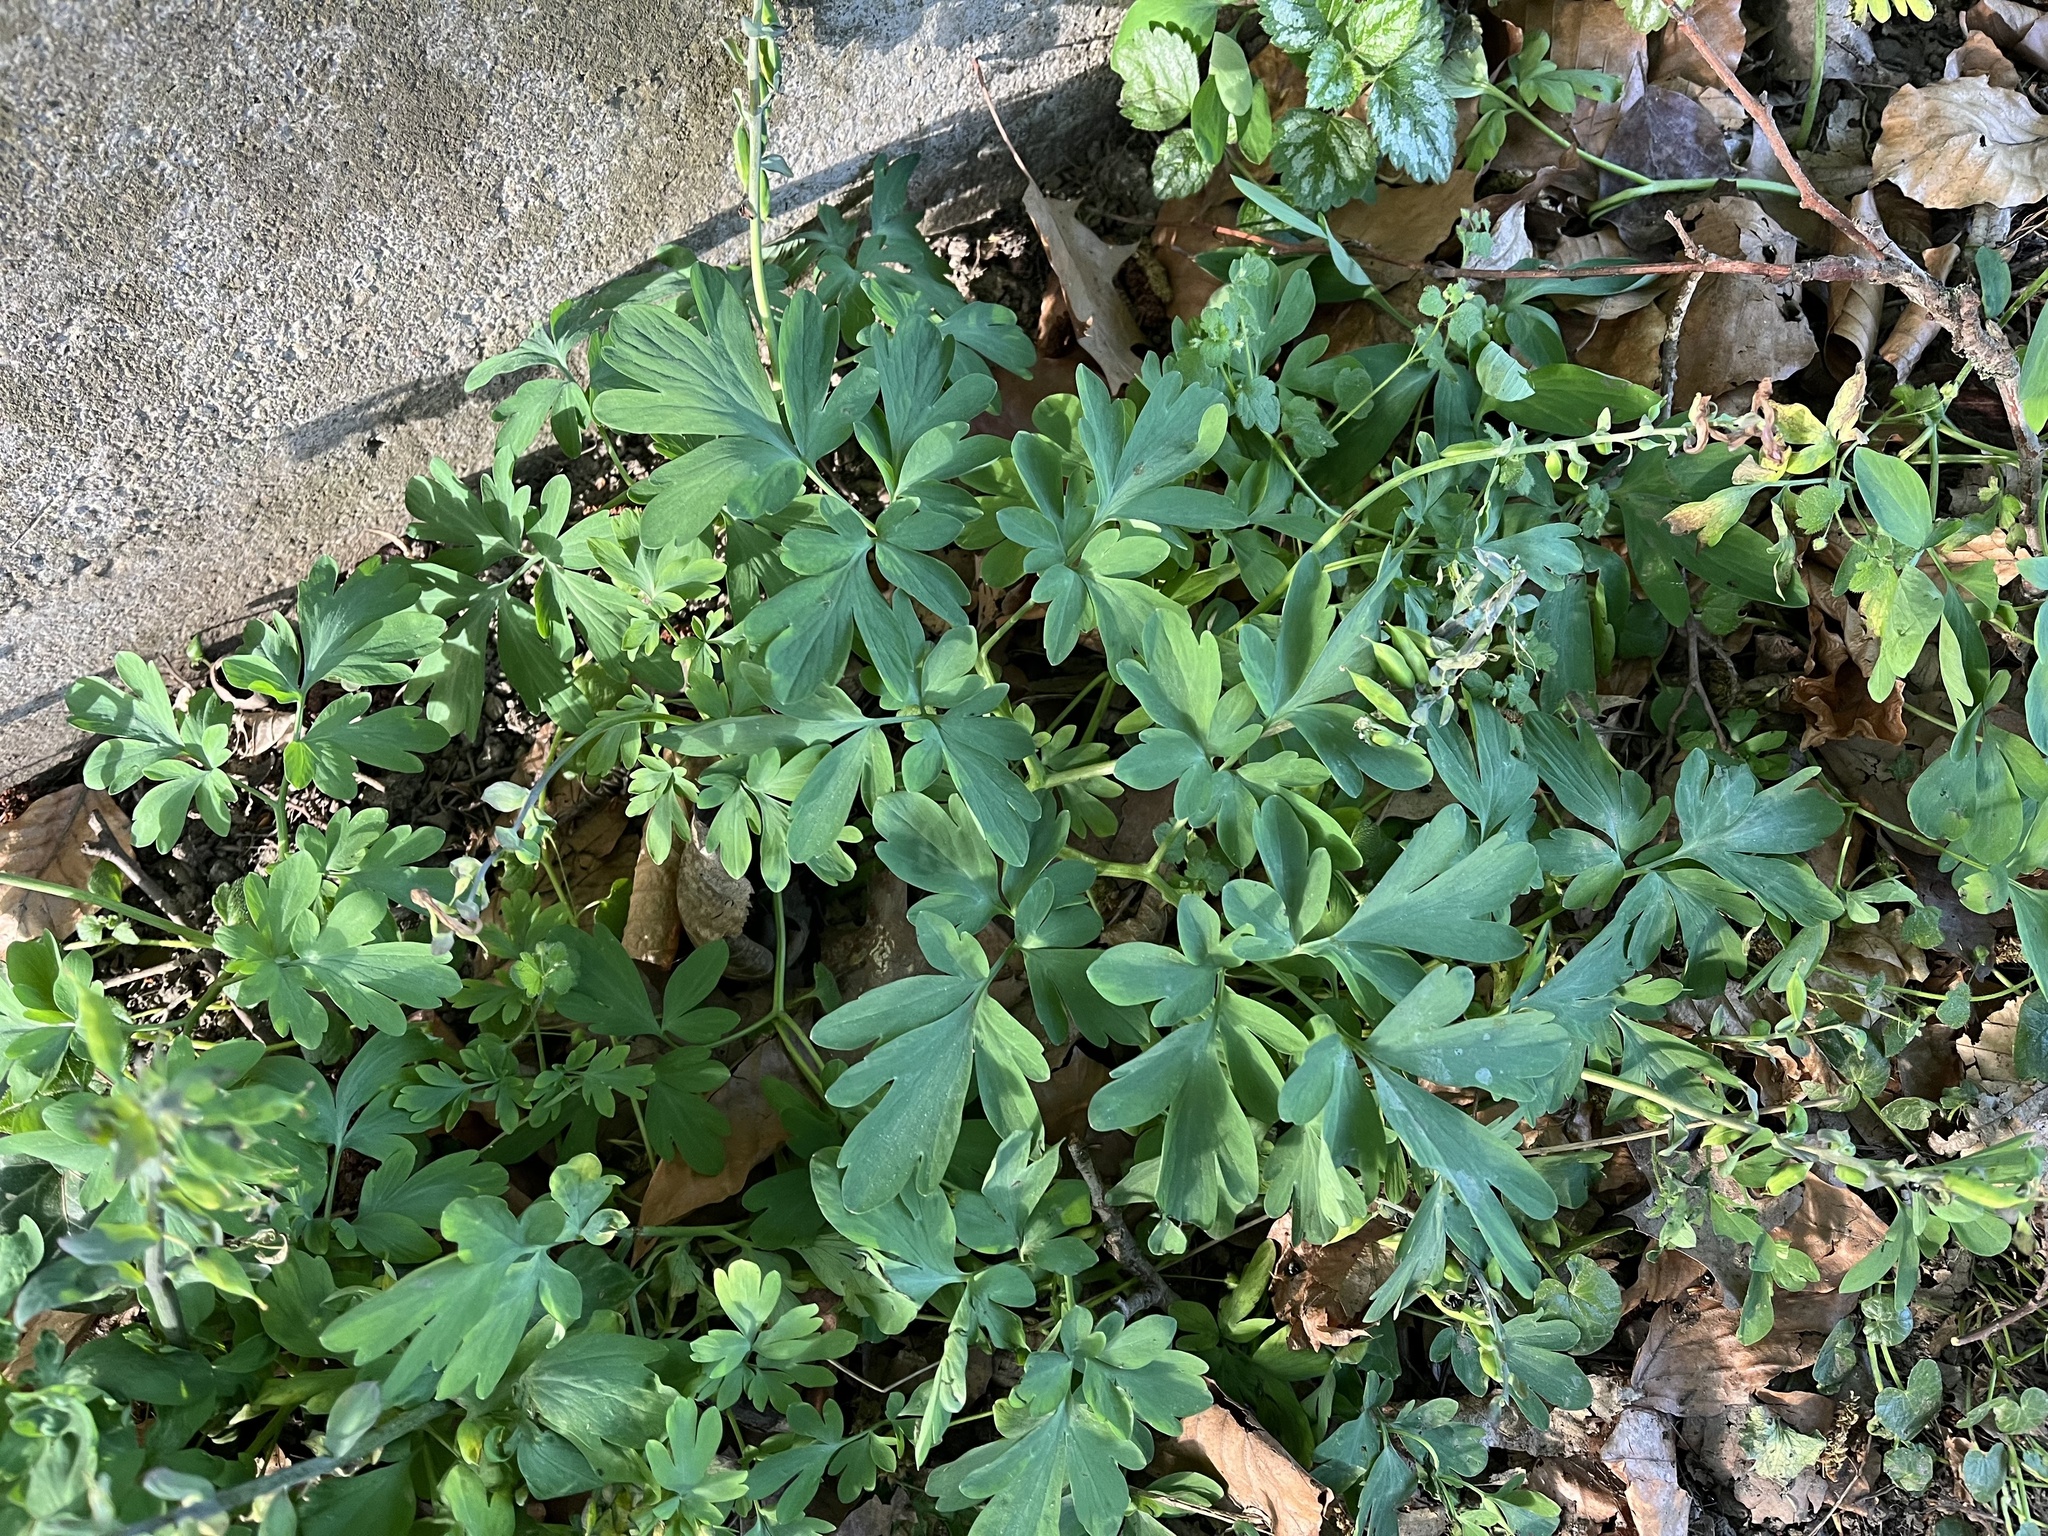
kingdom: Plantae
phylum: Tracheophyta
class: Magnoliopsida
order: Ranunculales
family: Papaveraceae
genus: Corydalis
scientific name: Corydalis cava
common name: Hollowroot
